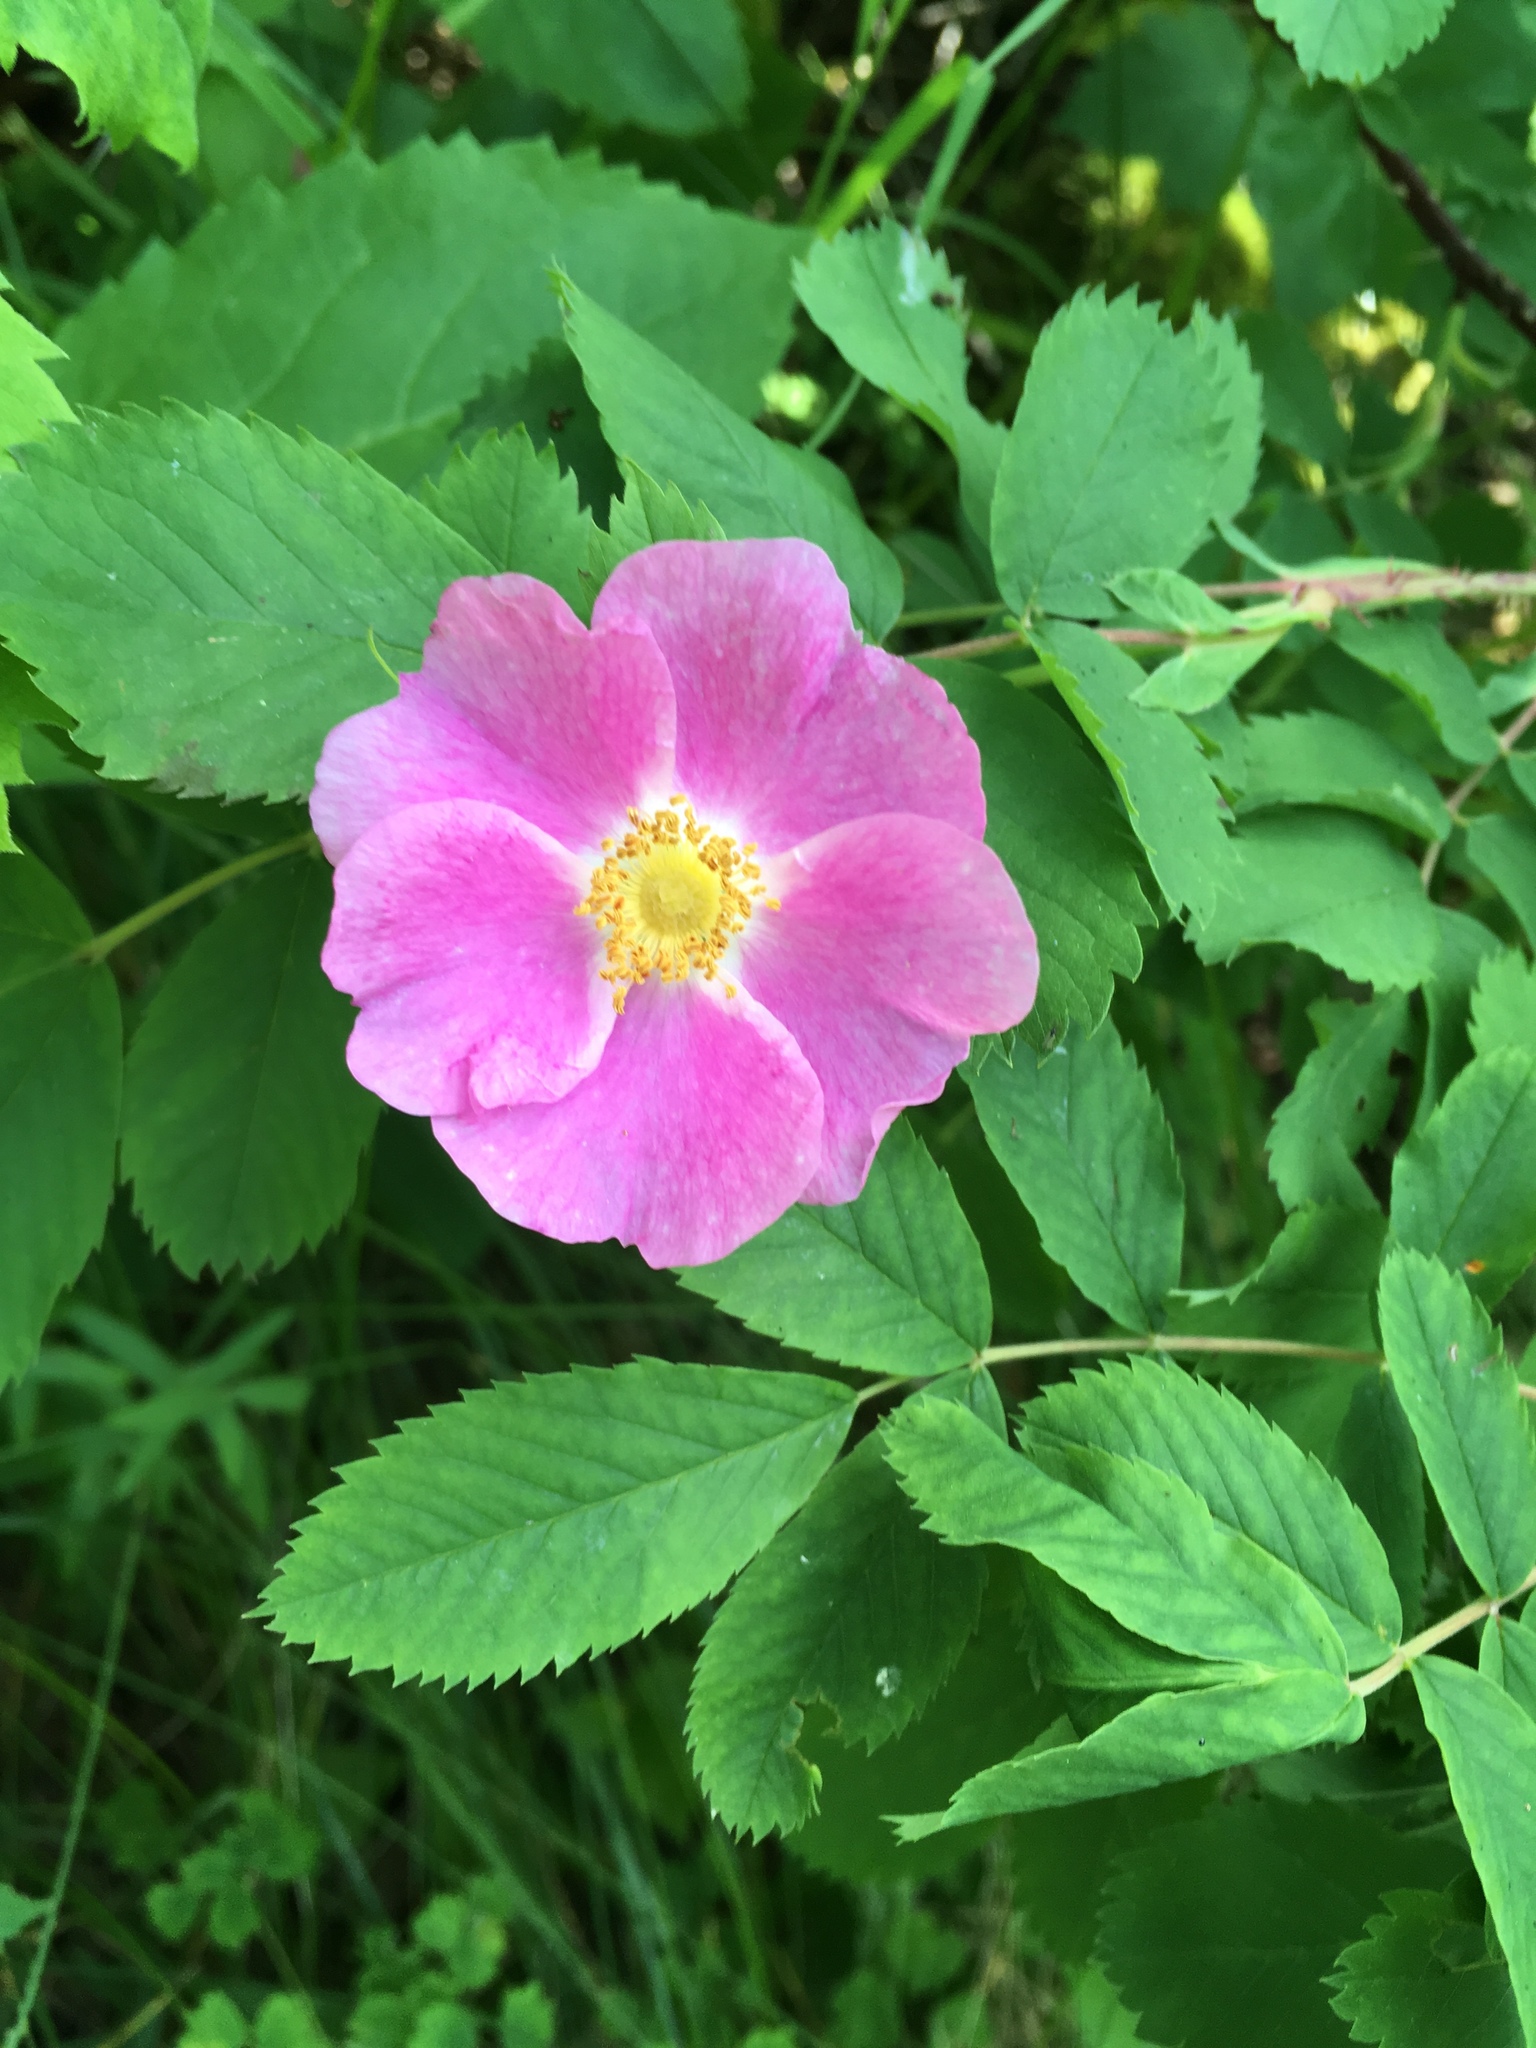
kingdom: Plantae
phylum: Tracheophyta
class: Magnoliopsida
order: Rosales
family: Rosaceae
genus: Rosa
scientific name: Rosa acicularis
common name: Prickly rose
